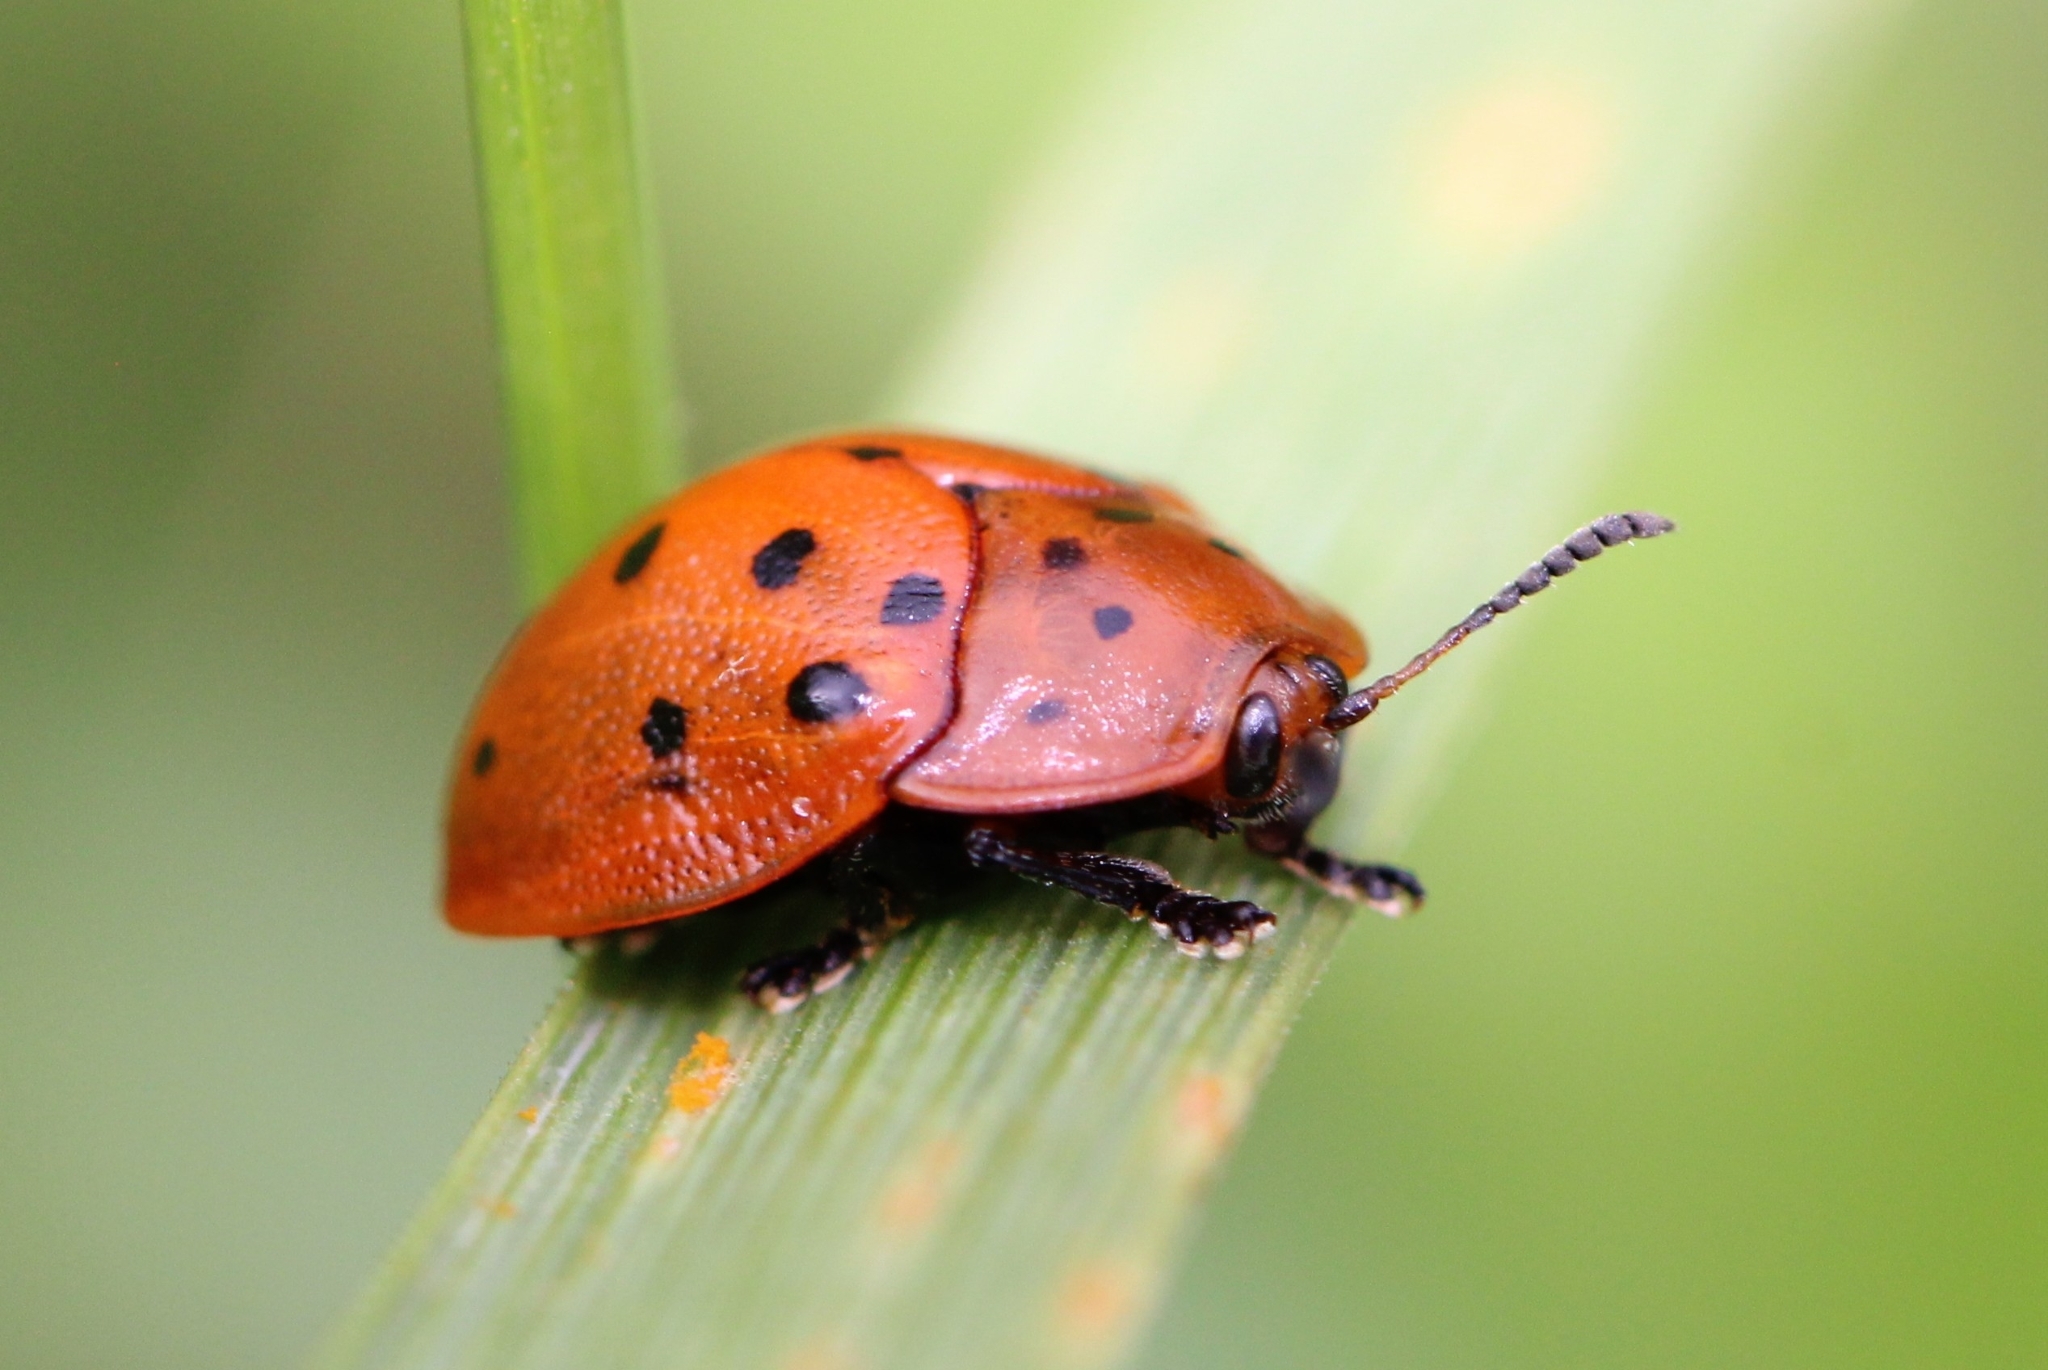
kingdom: Animalia
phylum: Arthropoda
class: Insecta
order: Coleoptera
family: Chrysomelidae
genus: Chelymorpha
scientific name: Chelymorpha cassidea
